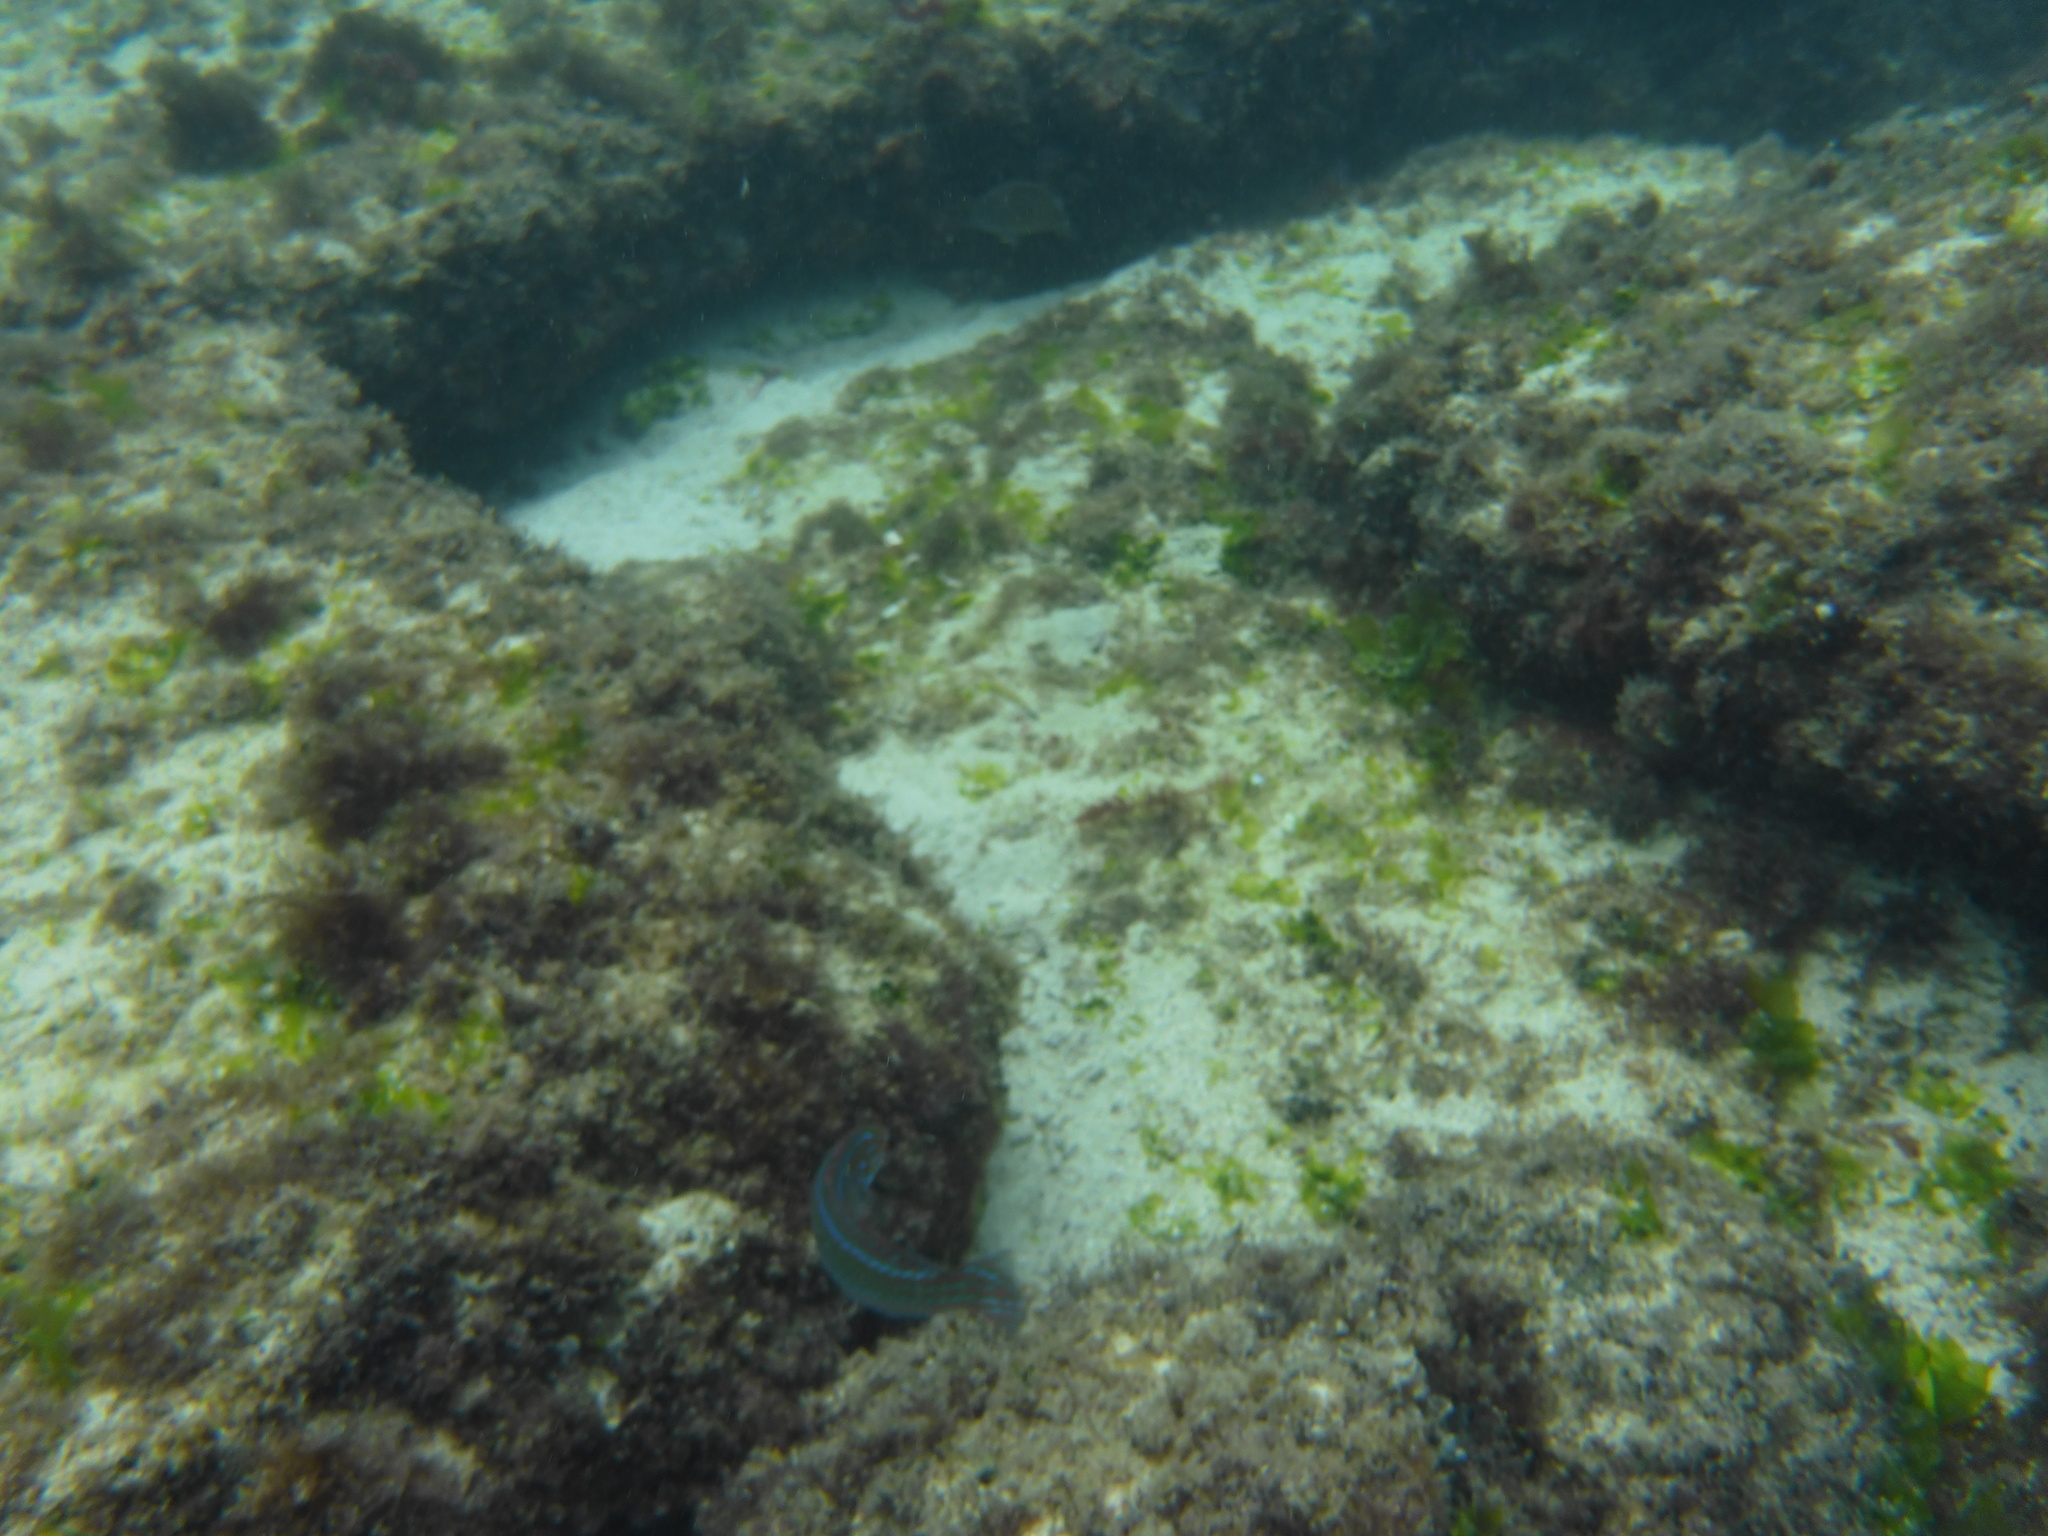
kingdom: Animalia
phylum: Chordata
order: Perciformes
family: Labridae
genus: Halichoeres
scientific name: Halichoeres dispilus
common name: Chameleon wrasse
